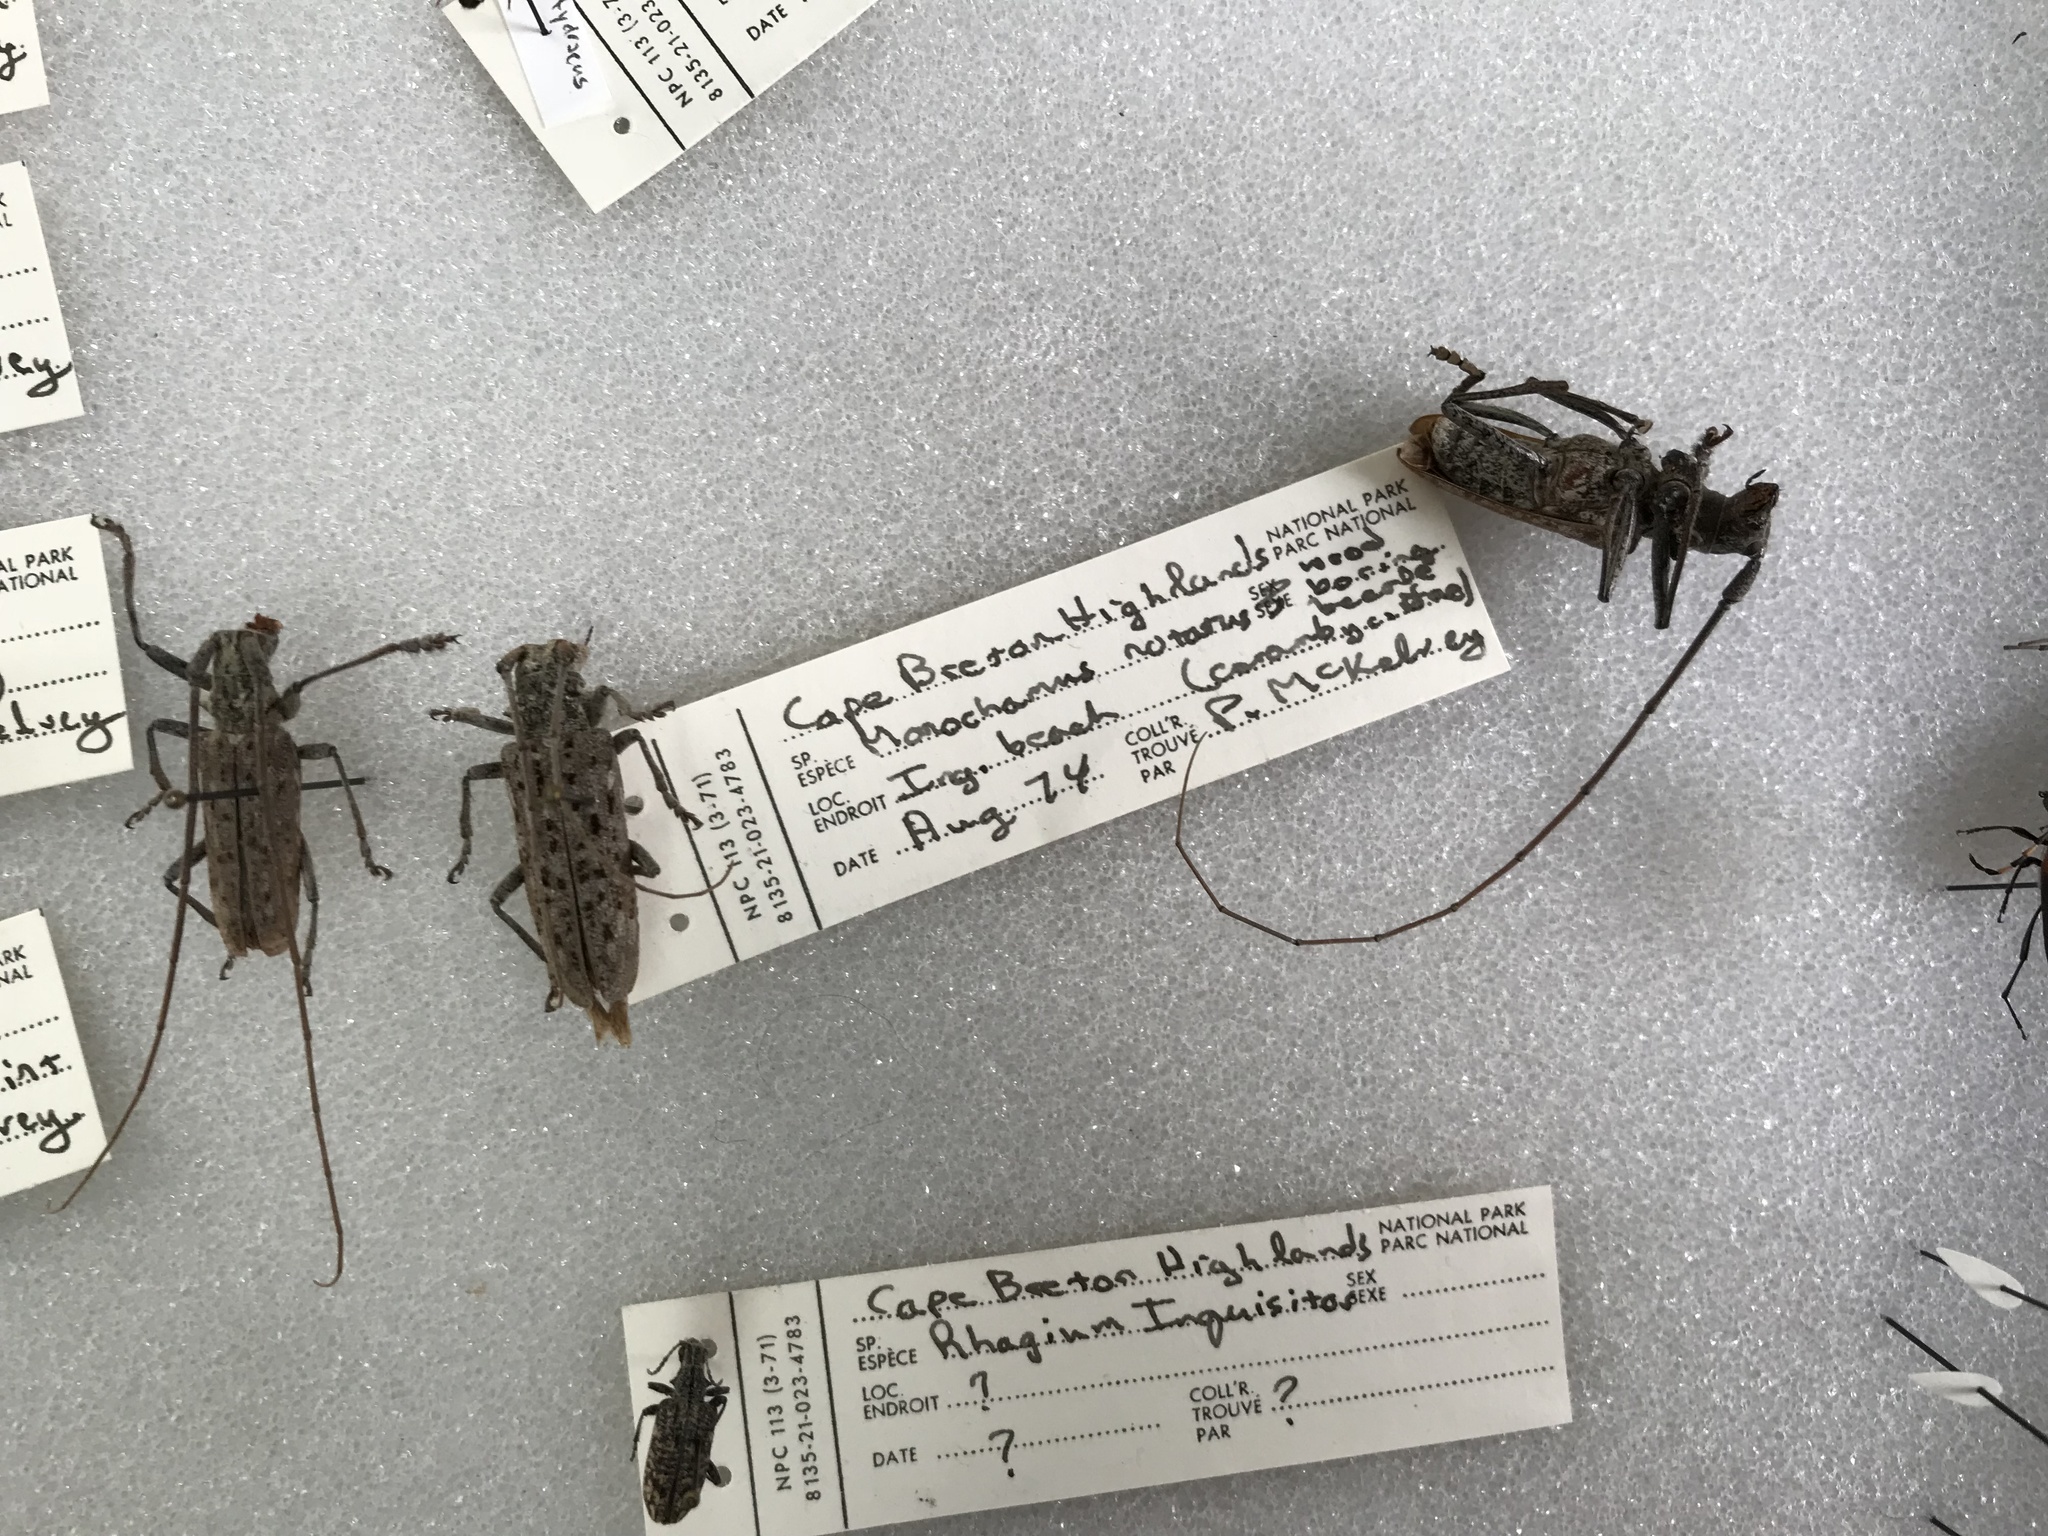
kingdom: Animalia
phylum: Arthropoda
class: Insecta
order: Coleoptera
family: Cerambycidae
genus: Monochamus
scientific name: Monochamus notatus
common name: Northeastern pine sawyer beetle
